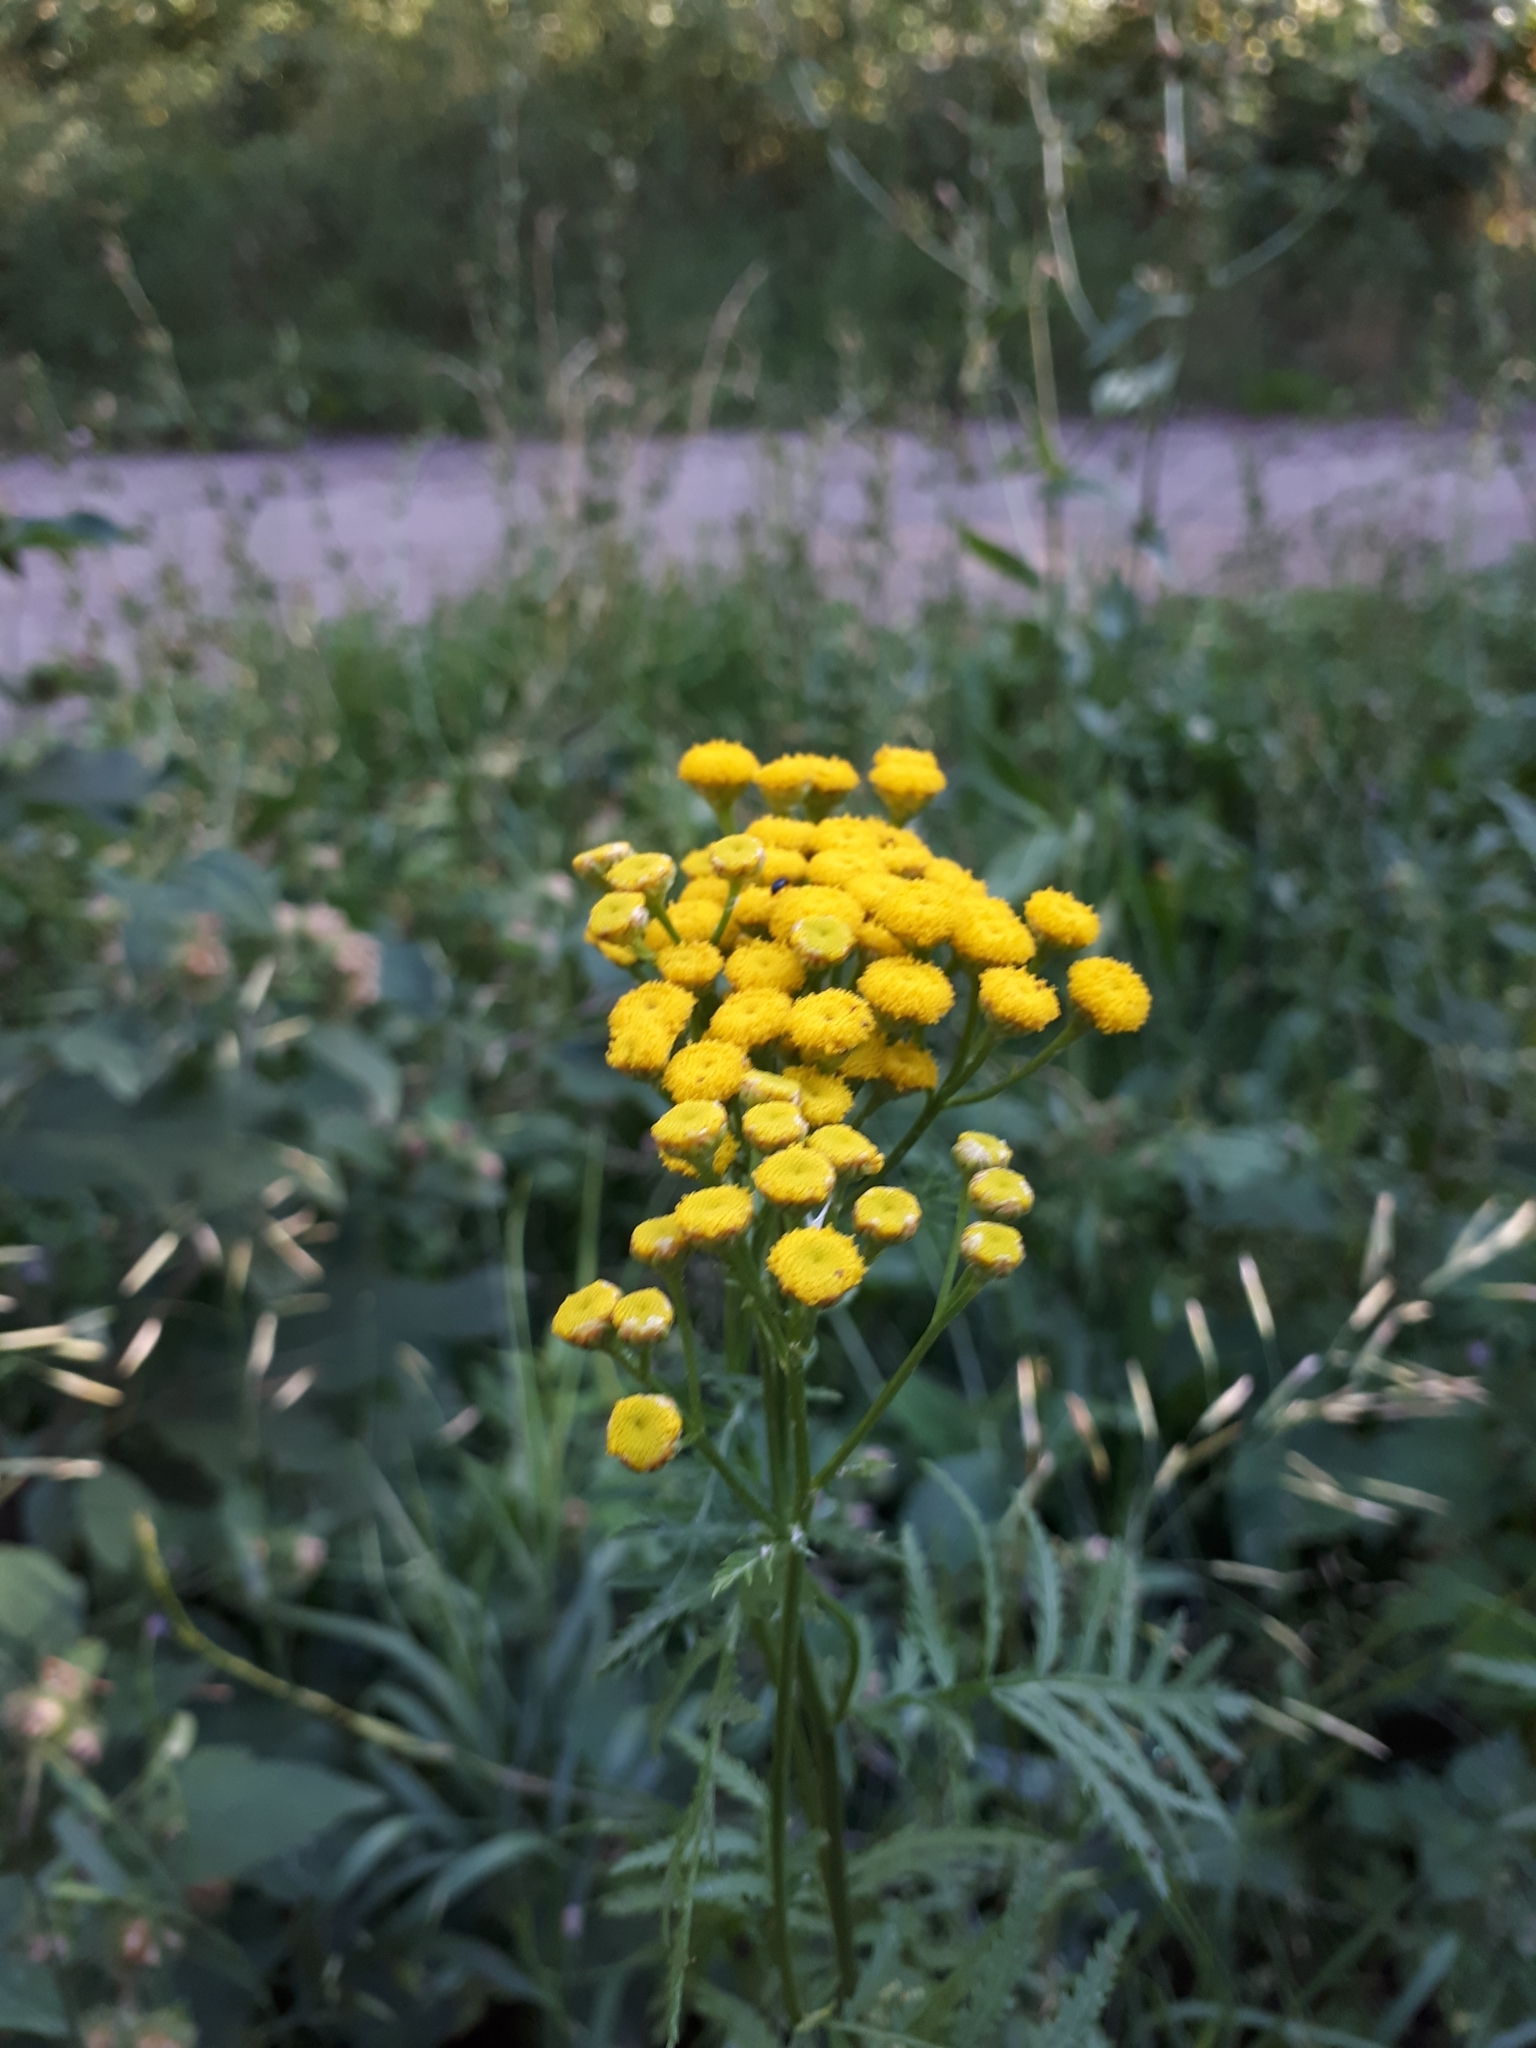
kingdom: Plantae
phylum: Tracheophyta
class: Magnoliopsida
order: Asterales
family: Asteraceae
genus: Tanacetum
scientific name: Tanacetum vulgare
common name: Common tansy
